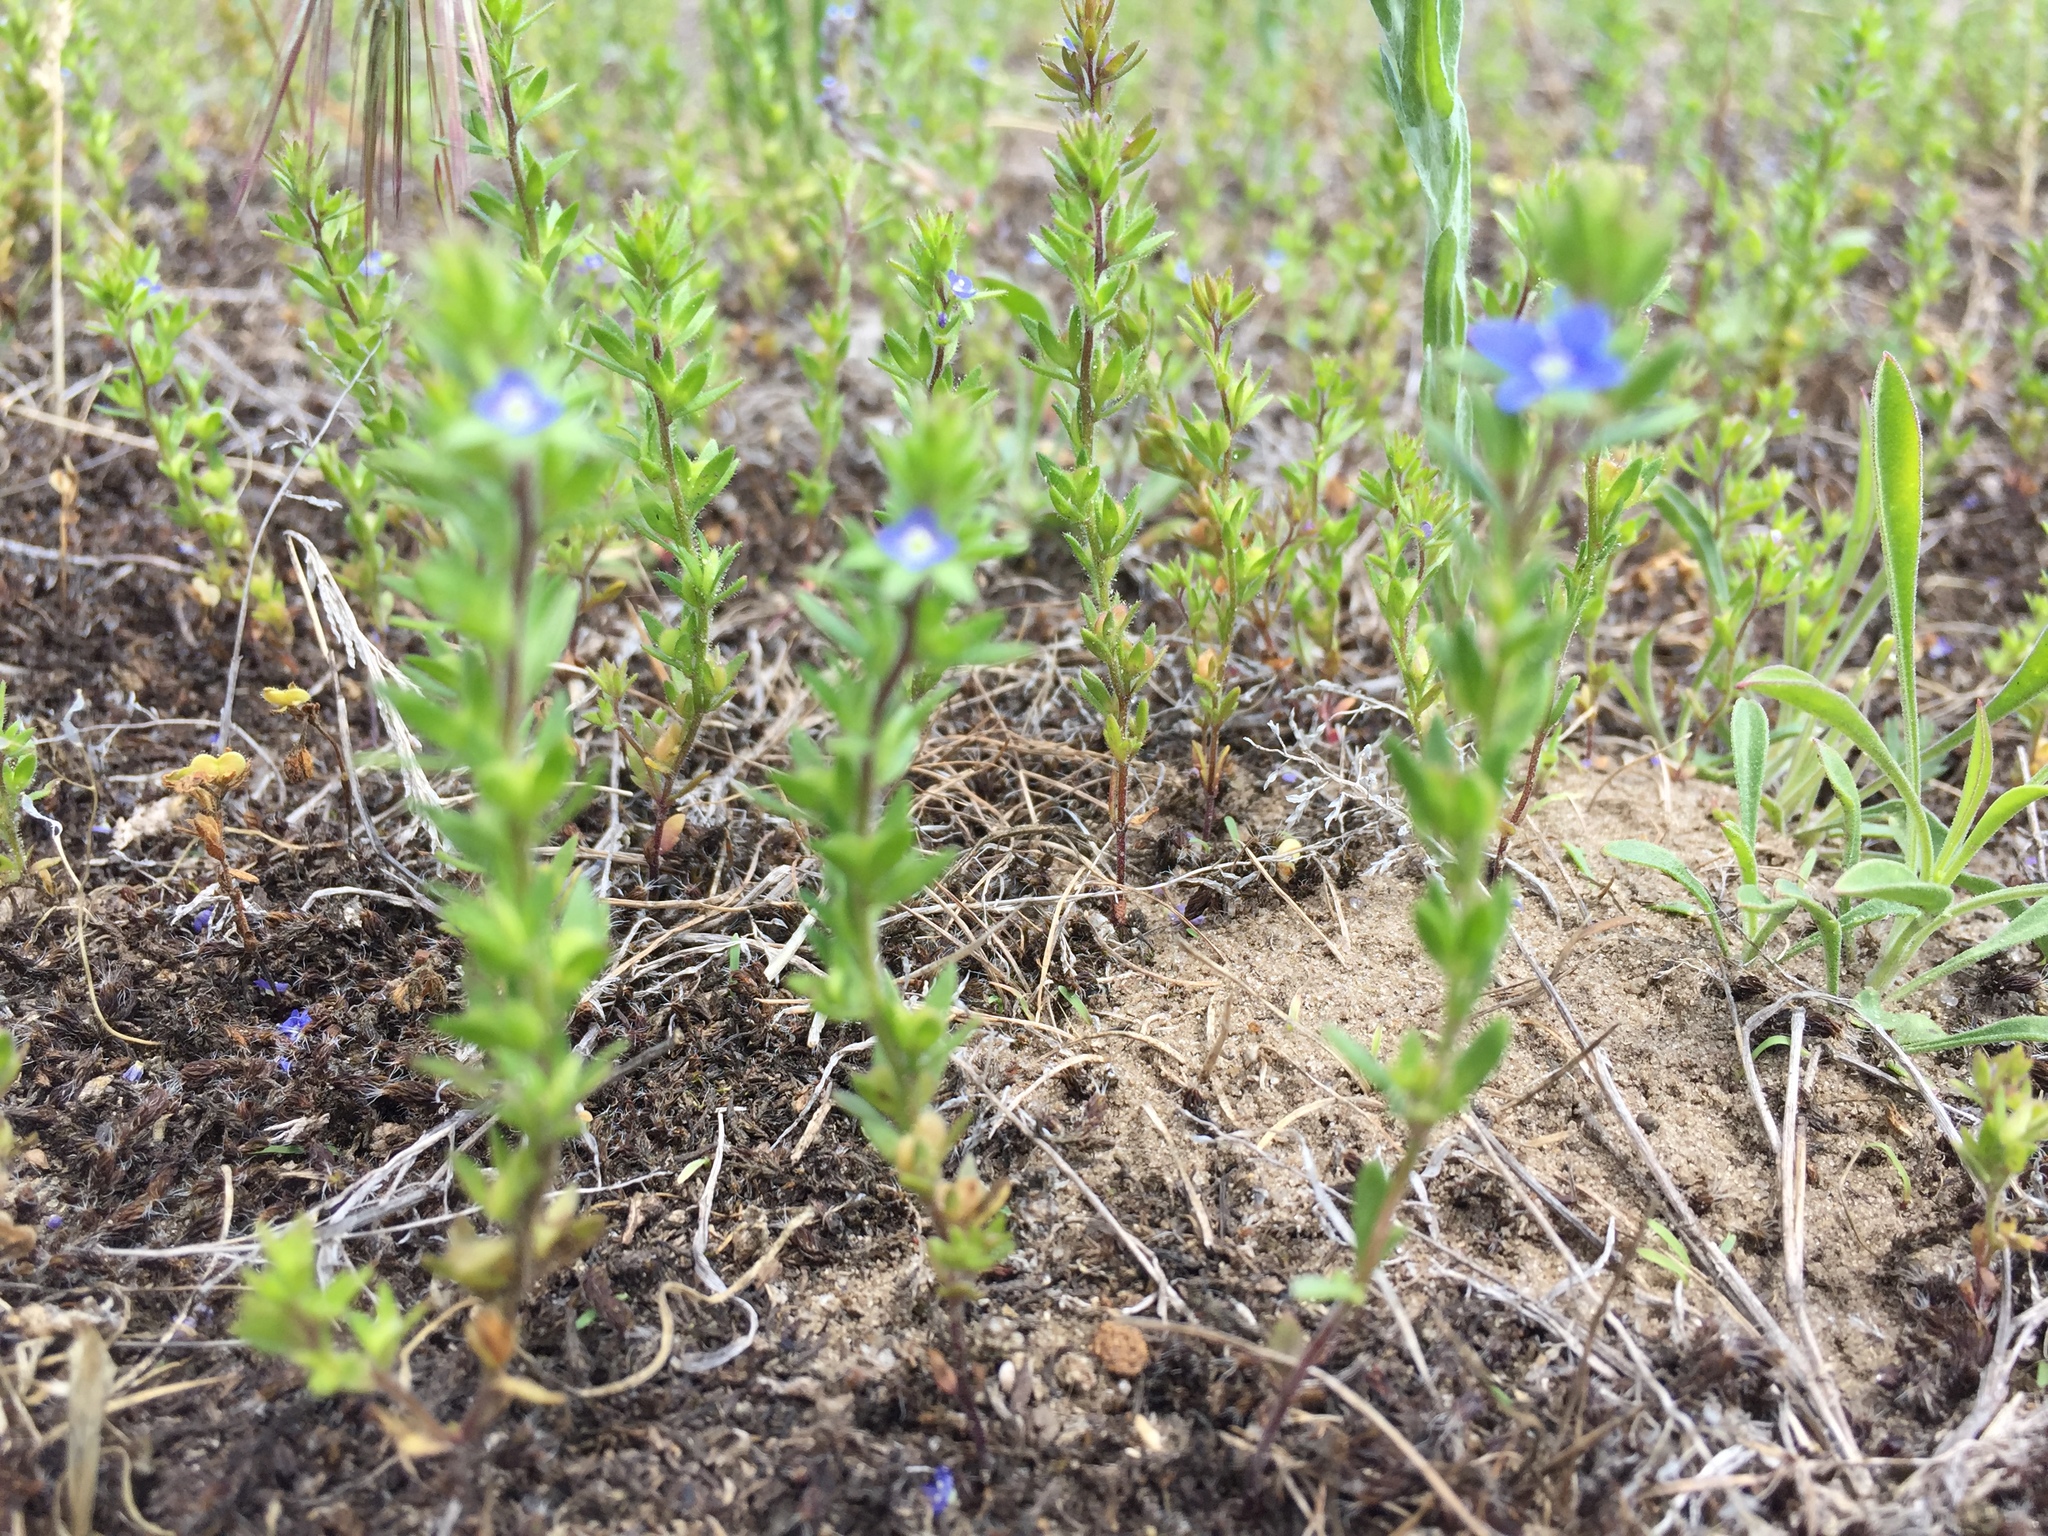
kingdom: Plantae
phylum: Tracheophyta
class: Magnoliopsida
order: Lamiales
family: Plantaginaceae
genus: Veronica
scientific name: Veronica verna
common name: Spring speedwell
